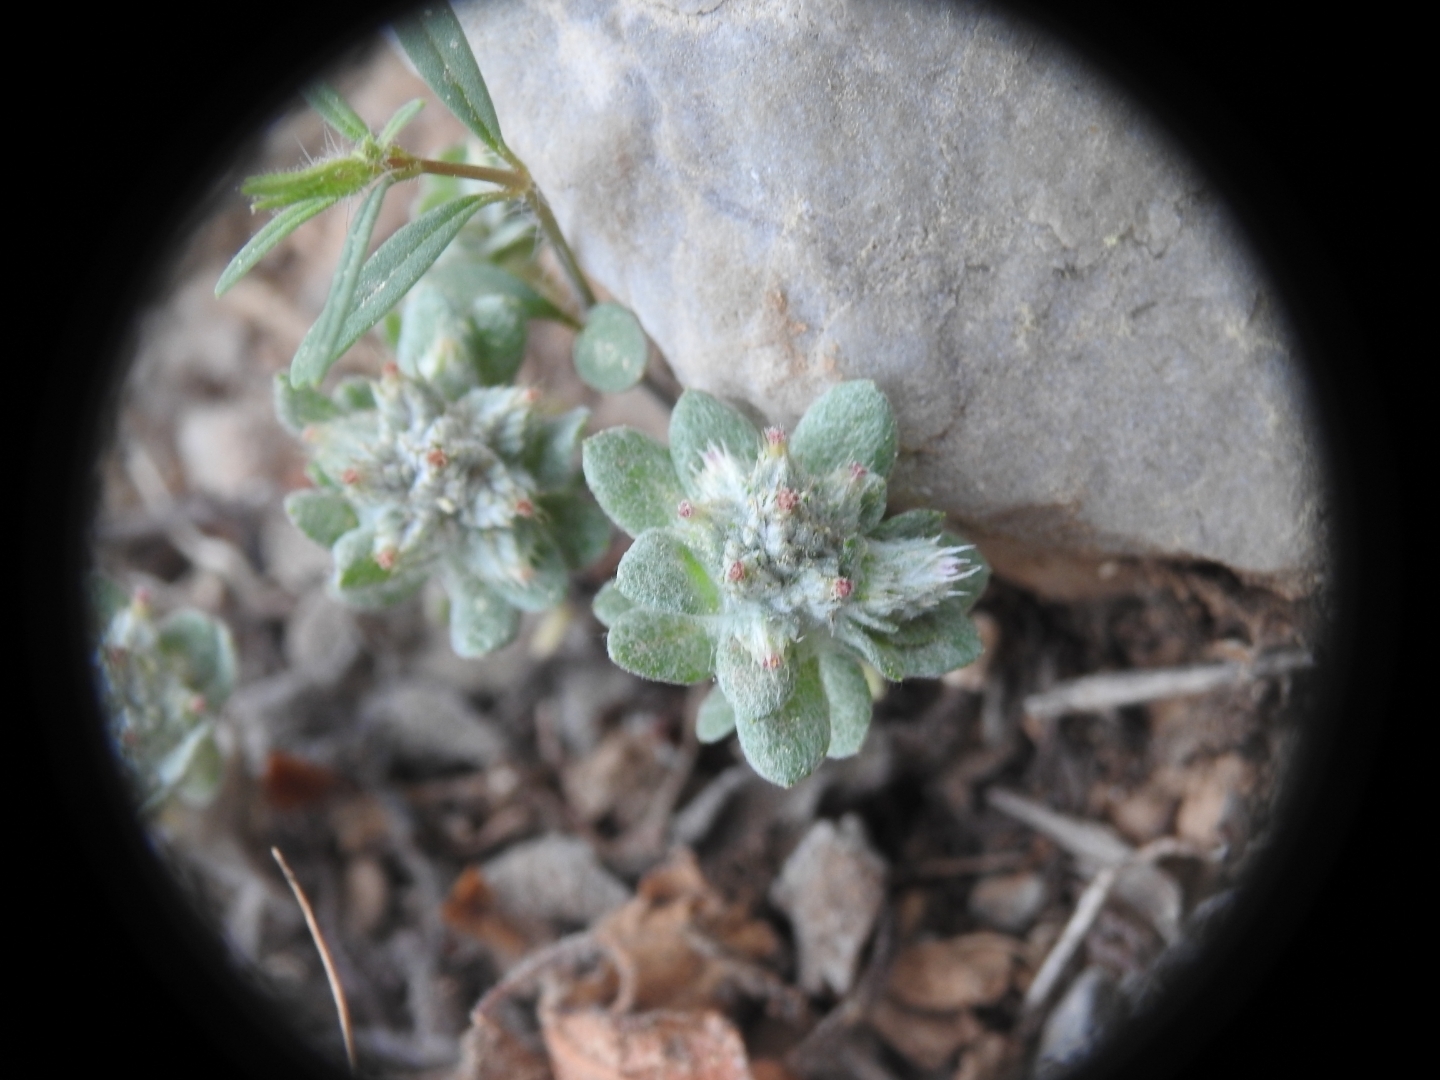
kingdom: Plantae
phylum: Tracheophyta
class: Magnoliopsida
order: Asterales
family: Asteraceae
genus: Filago
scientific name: Filago aegaea
